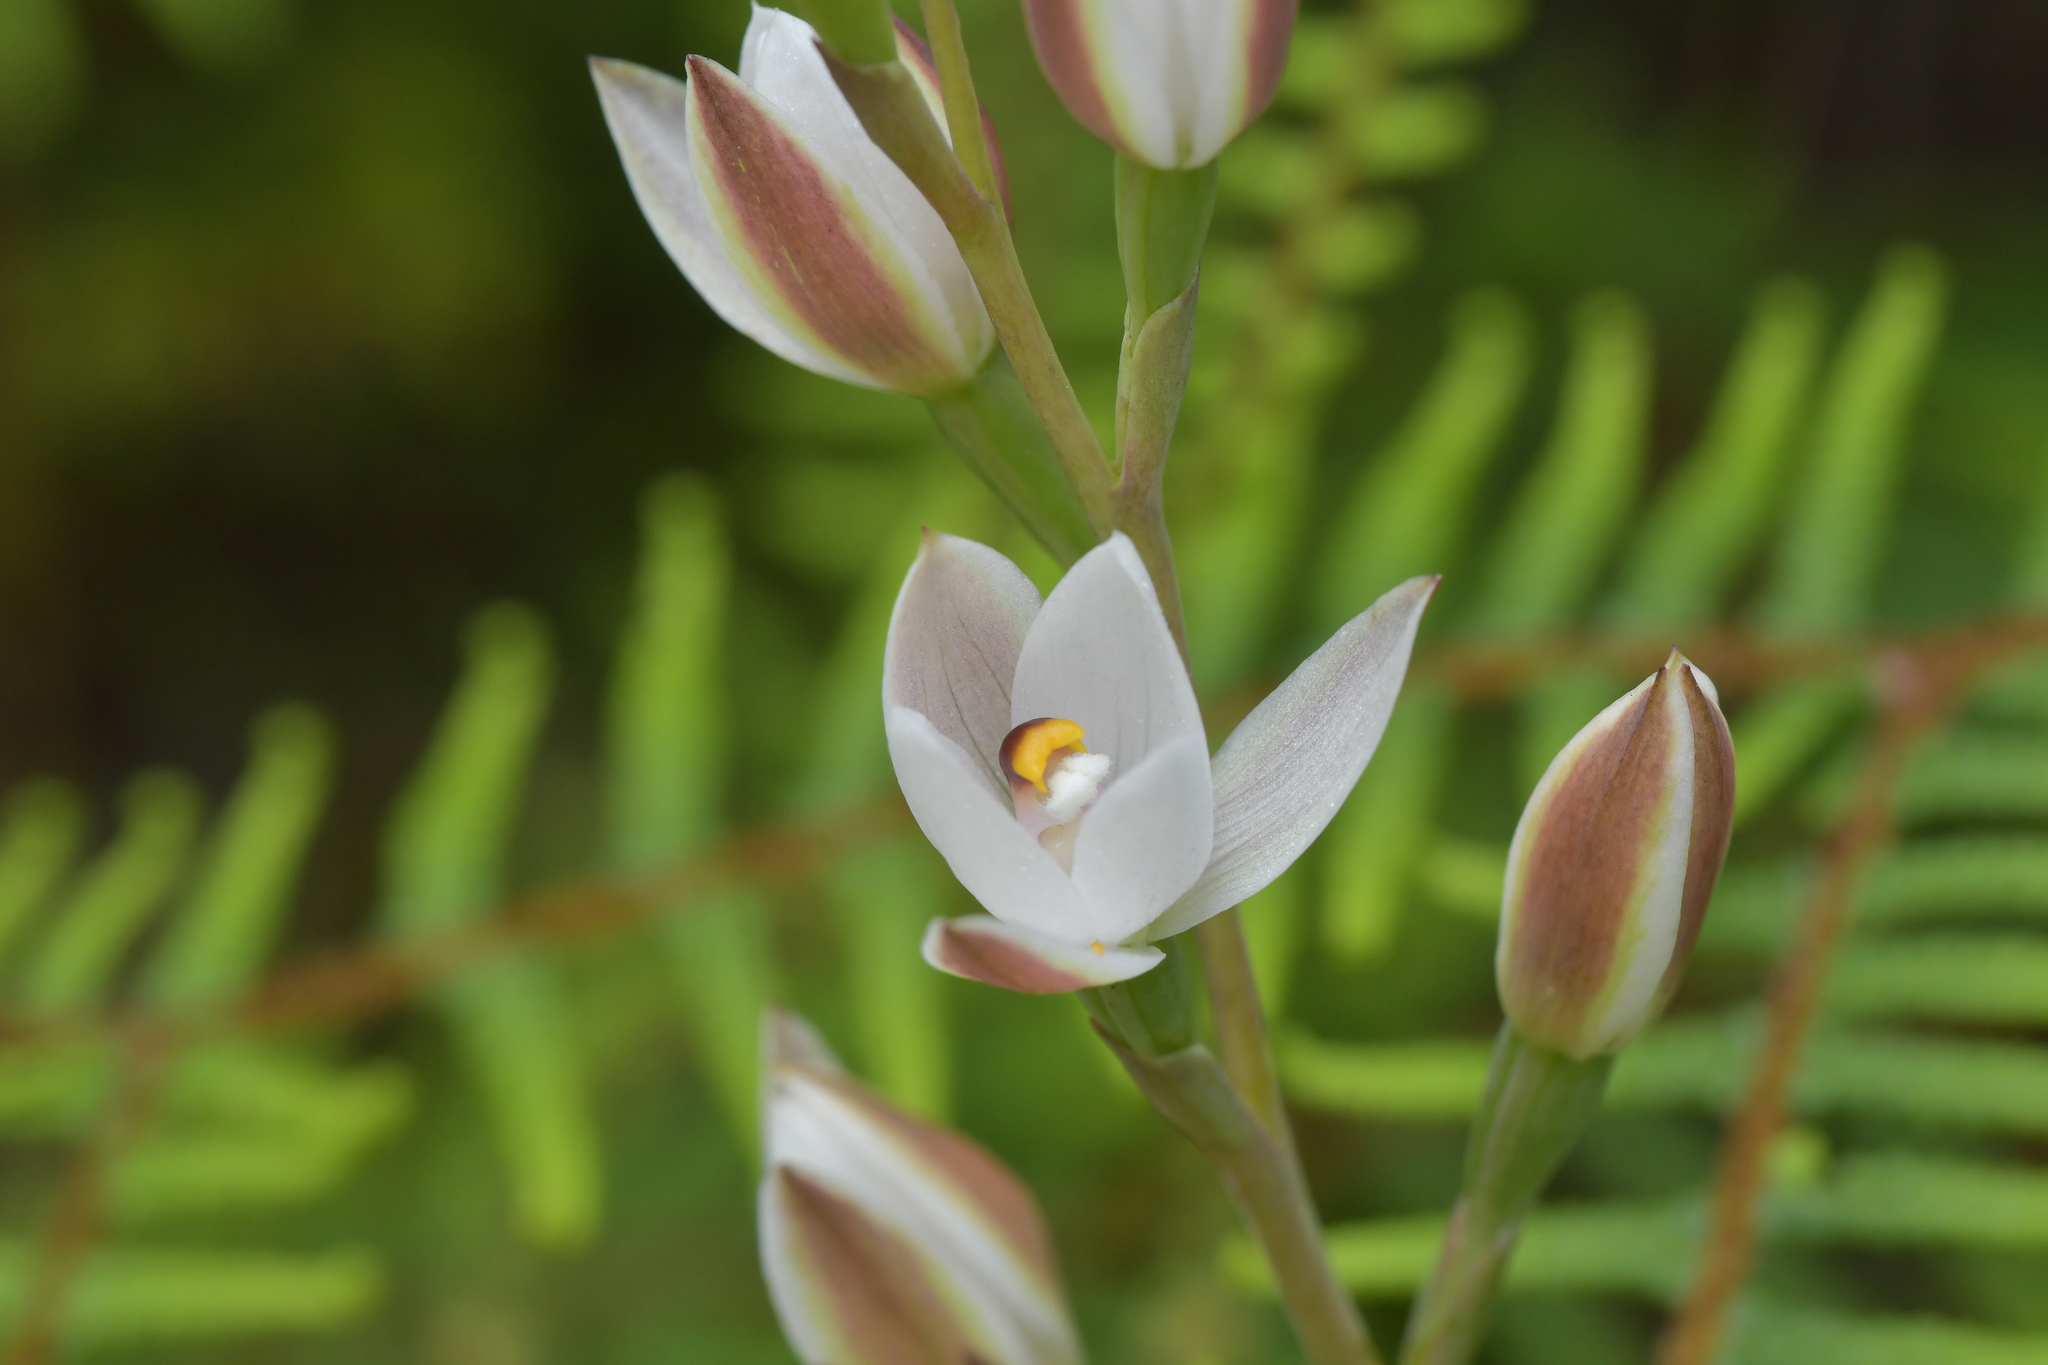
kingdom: Plantae
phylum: Tracheophyta
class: Liliopsida
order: Asparagales
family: Orchidaceae
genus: Thelymitra
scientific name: Thelymitra longifolia
